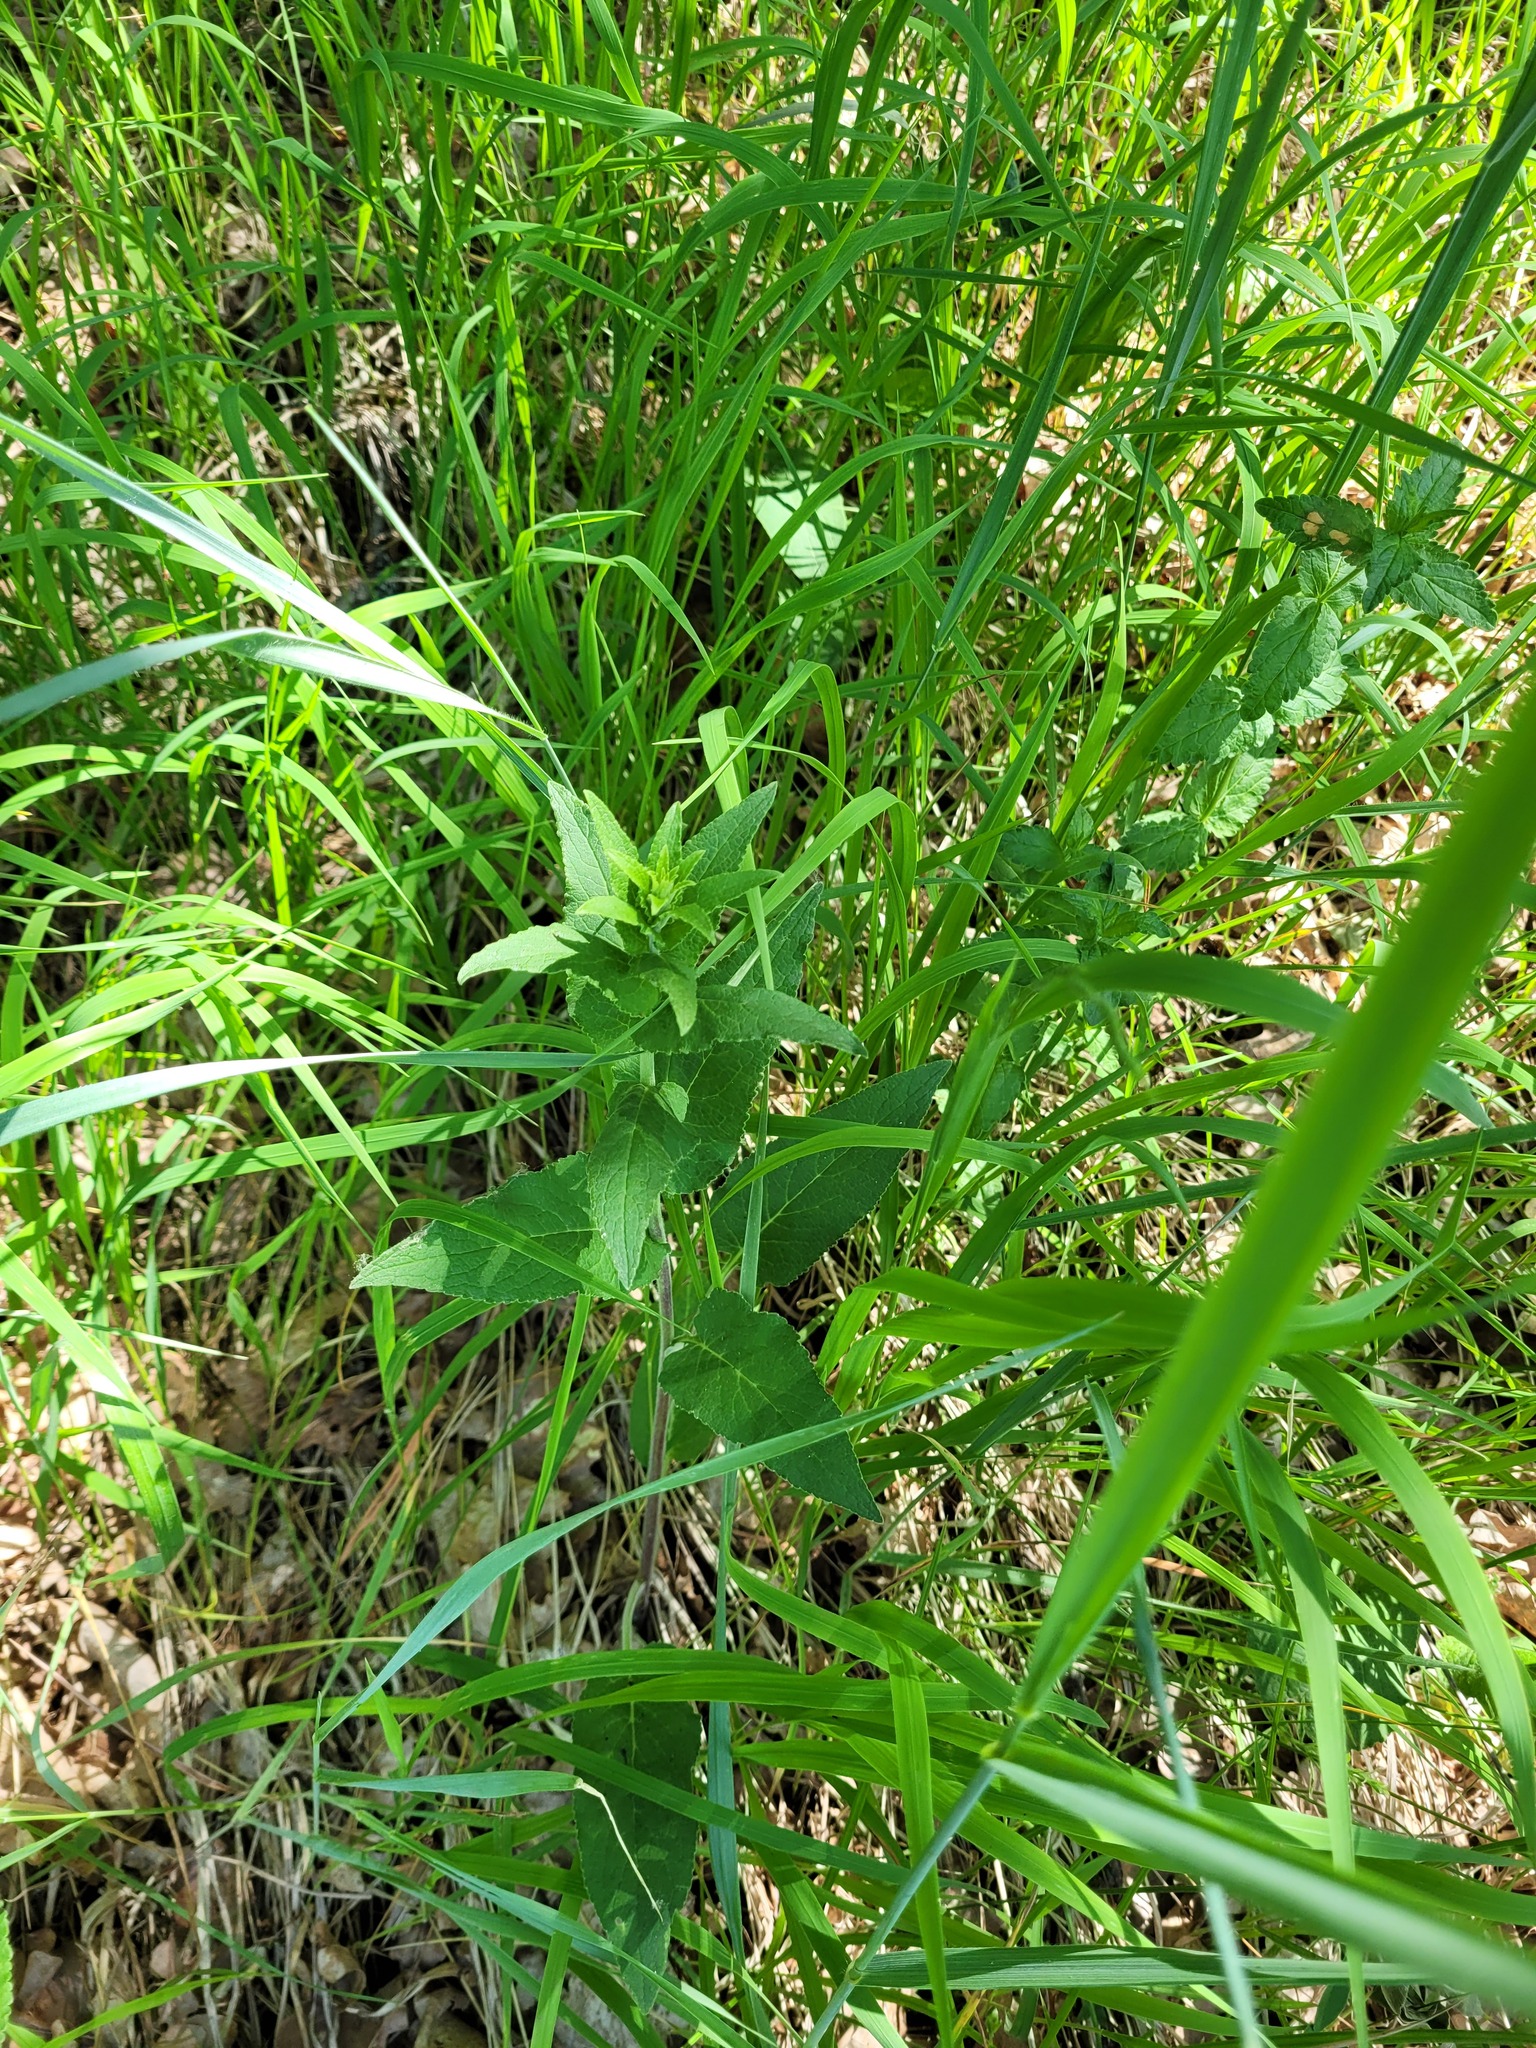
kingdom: Plantae
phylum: Tracheophyta
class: Magnoliopsida
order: Asterales
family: Campanulaceae
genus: Campanula
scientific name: Campanula bononiensis
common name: Pale bellflower
